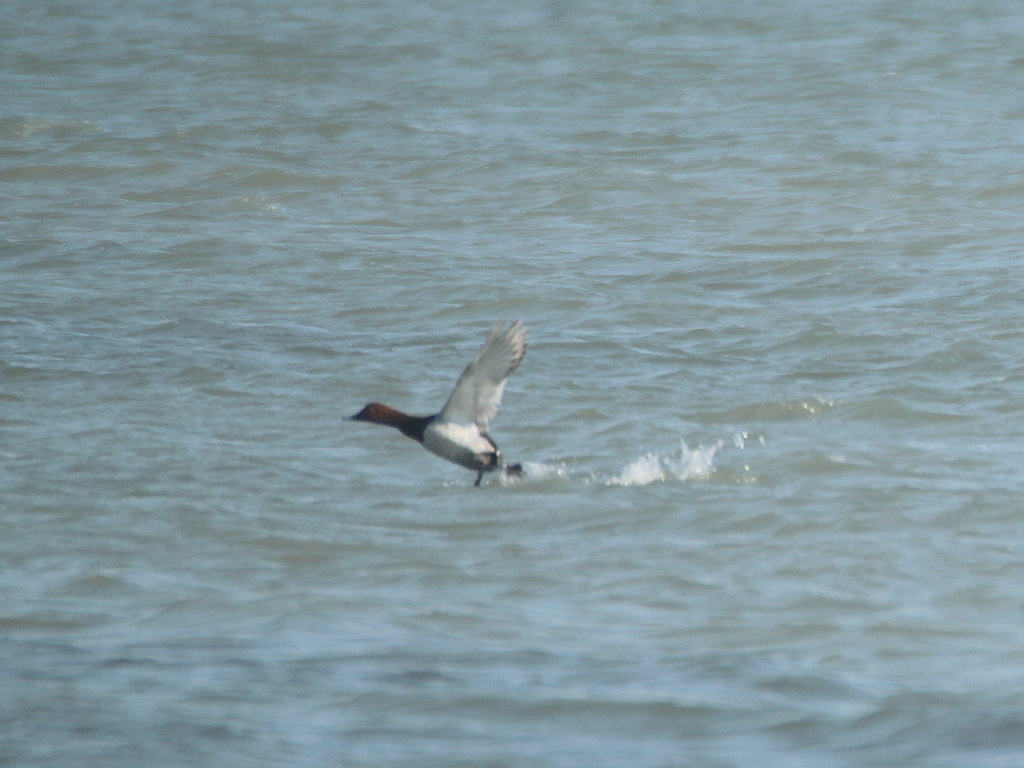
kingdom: Animalia
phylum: Chordata
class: Aves
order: Anseriformes
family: Anatidae
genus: Aythya
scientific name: Aythya ferina
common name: Common pochard
